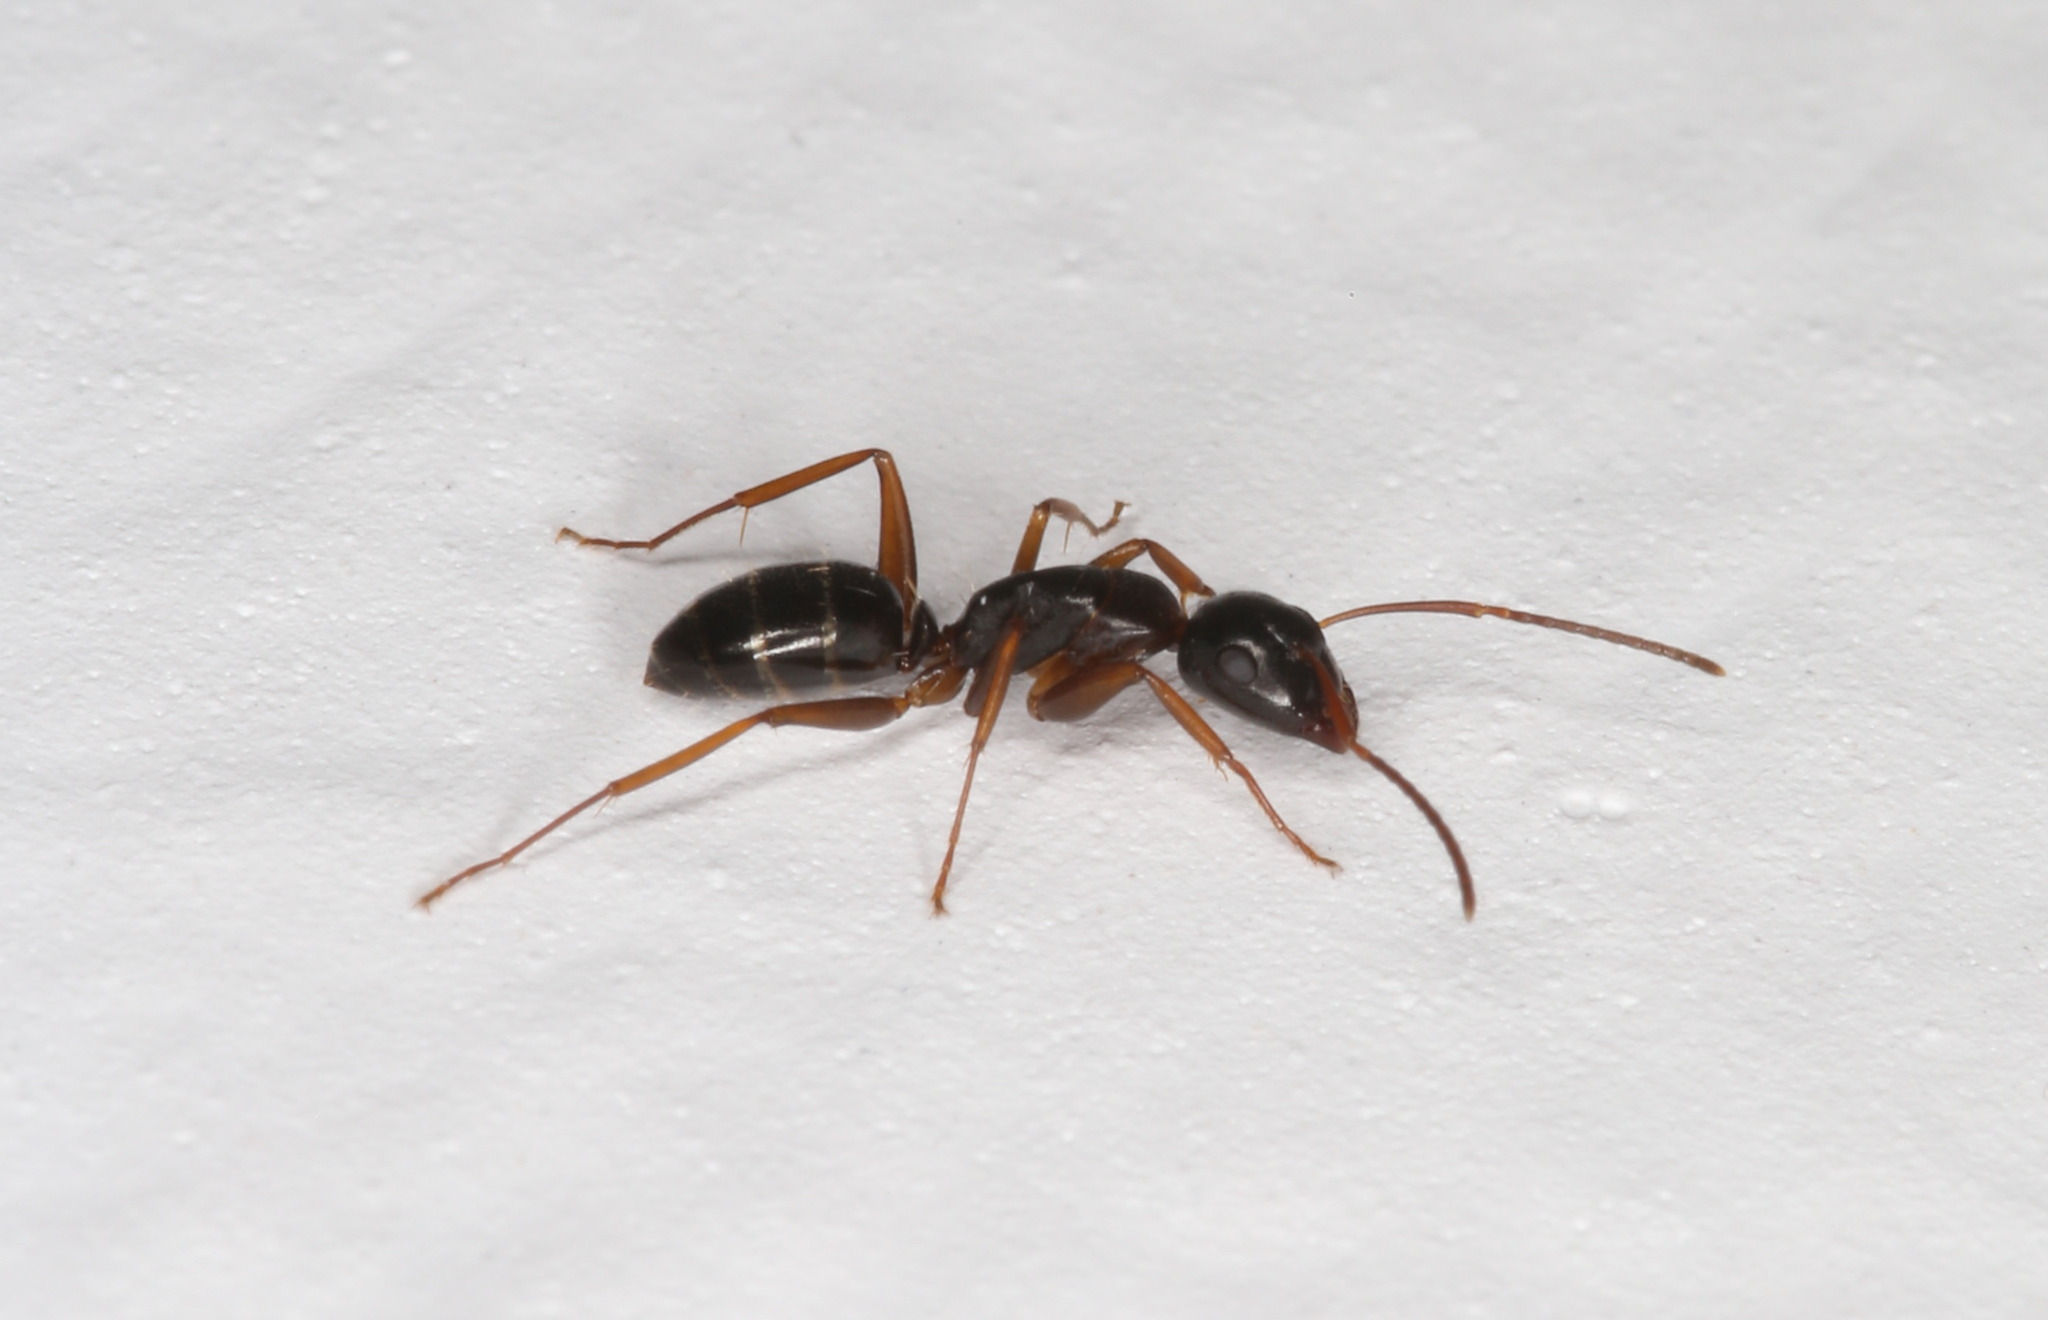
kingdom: Animalia
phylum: Arthropoda
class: Insecta
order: Hymenoptera
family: Formicidae
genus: Camponotus
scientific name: Camponotus fallax
